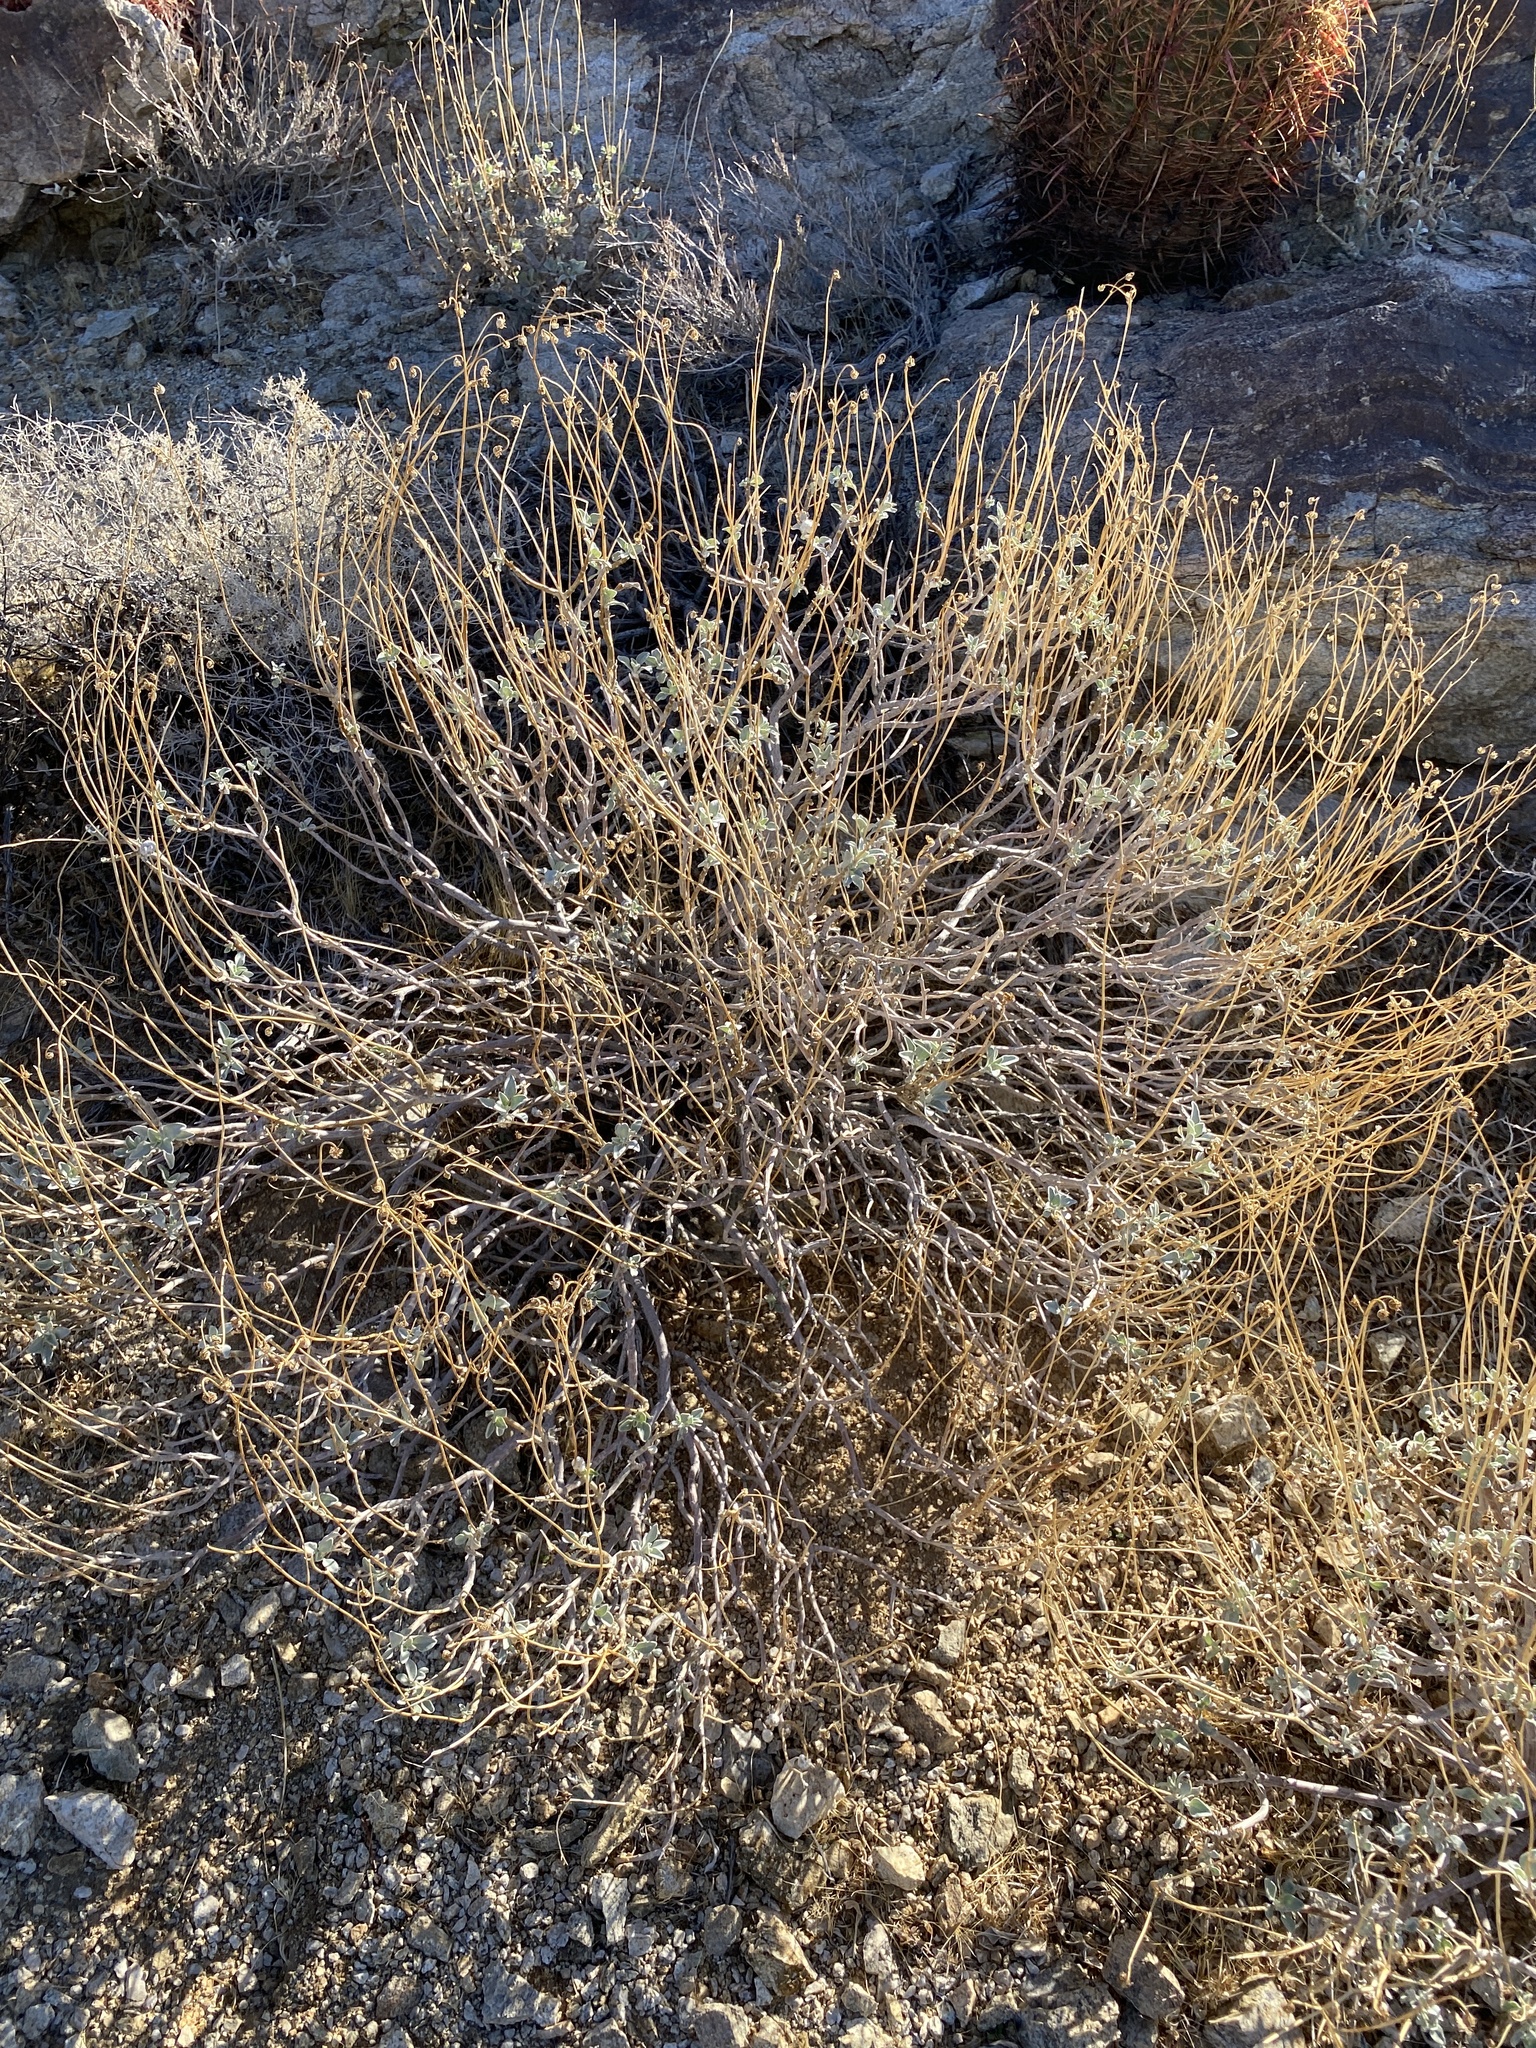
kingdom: Plantae
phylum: Tracheophyta
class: Magnoliopsida
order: Asterales
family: Asteraceae
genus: Encelia
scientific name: Encelia farinosa
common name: Brittlebush
